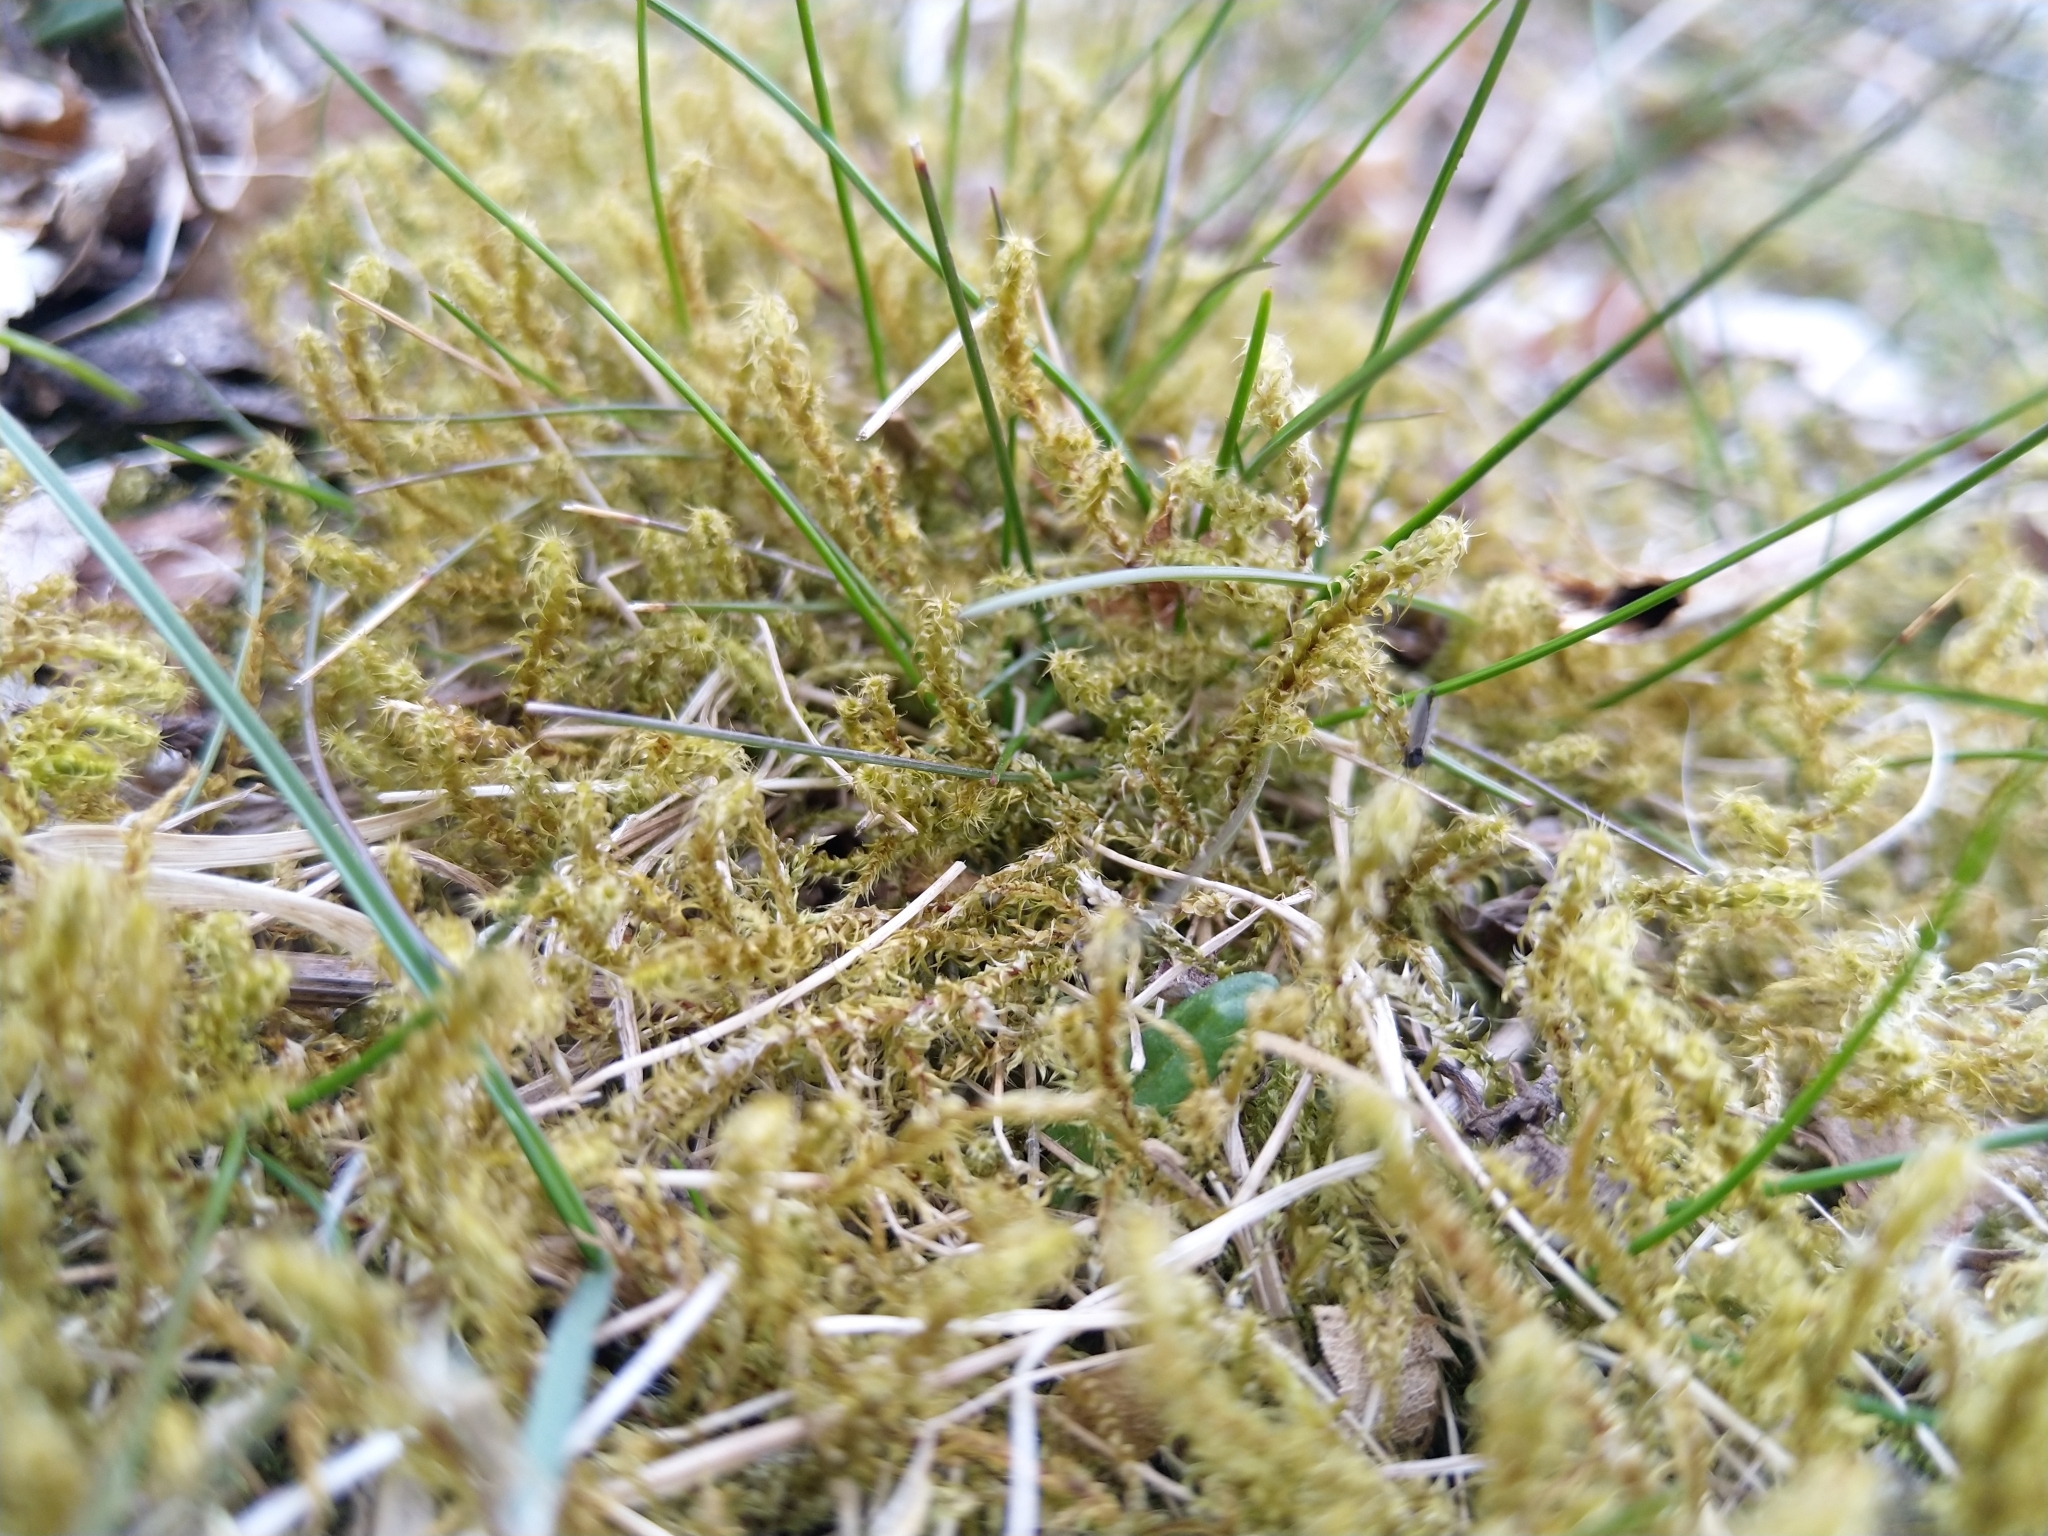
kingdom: Plantae
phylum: Bryophyta
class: Bryopsida
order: Hypnales
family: Hylocomiaceae
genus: Rhytidiadelphus
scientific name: Rhytidiadelphus squarrosus
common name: Springy turf-moss
